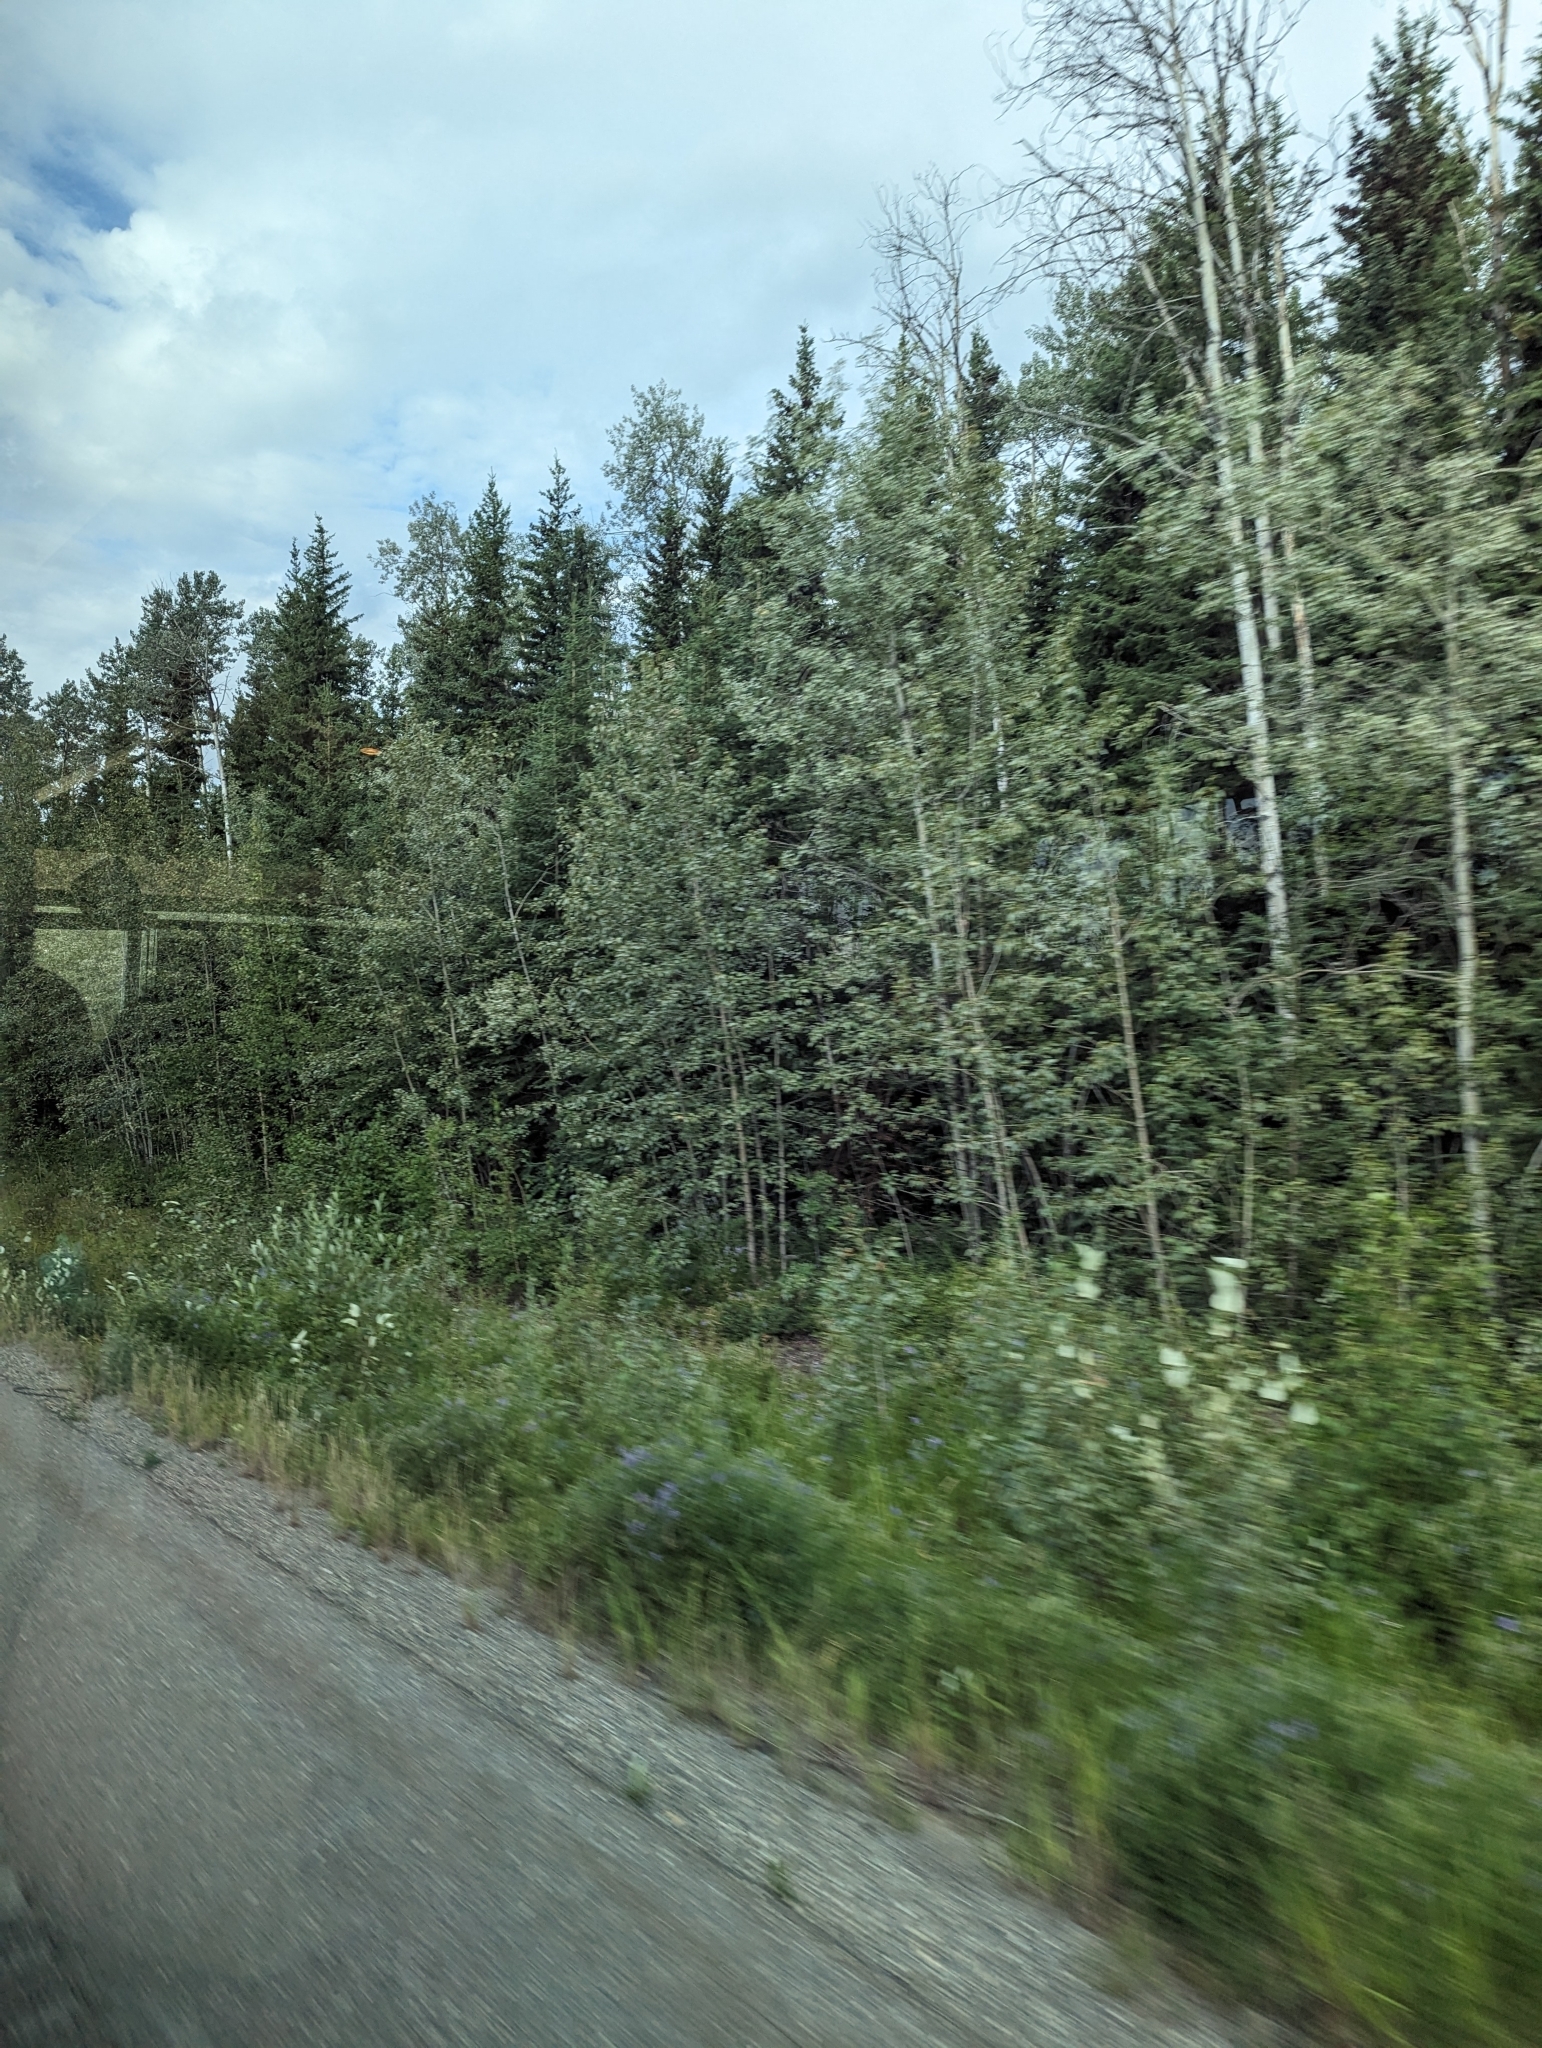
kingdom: Plantae
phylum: Tracheophyta
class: Magnoliopsida
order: Malpighiales
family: Salicaceae
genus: Populus
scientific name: Populus tremuloides
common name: Quaking aspen
